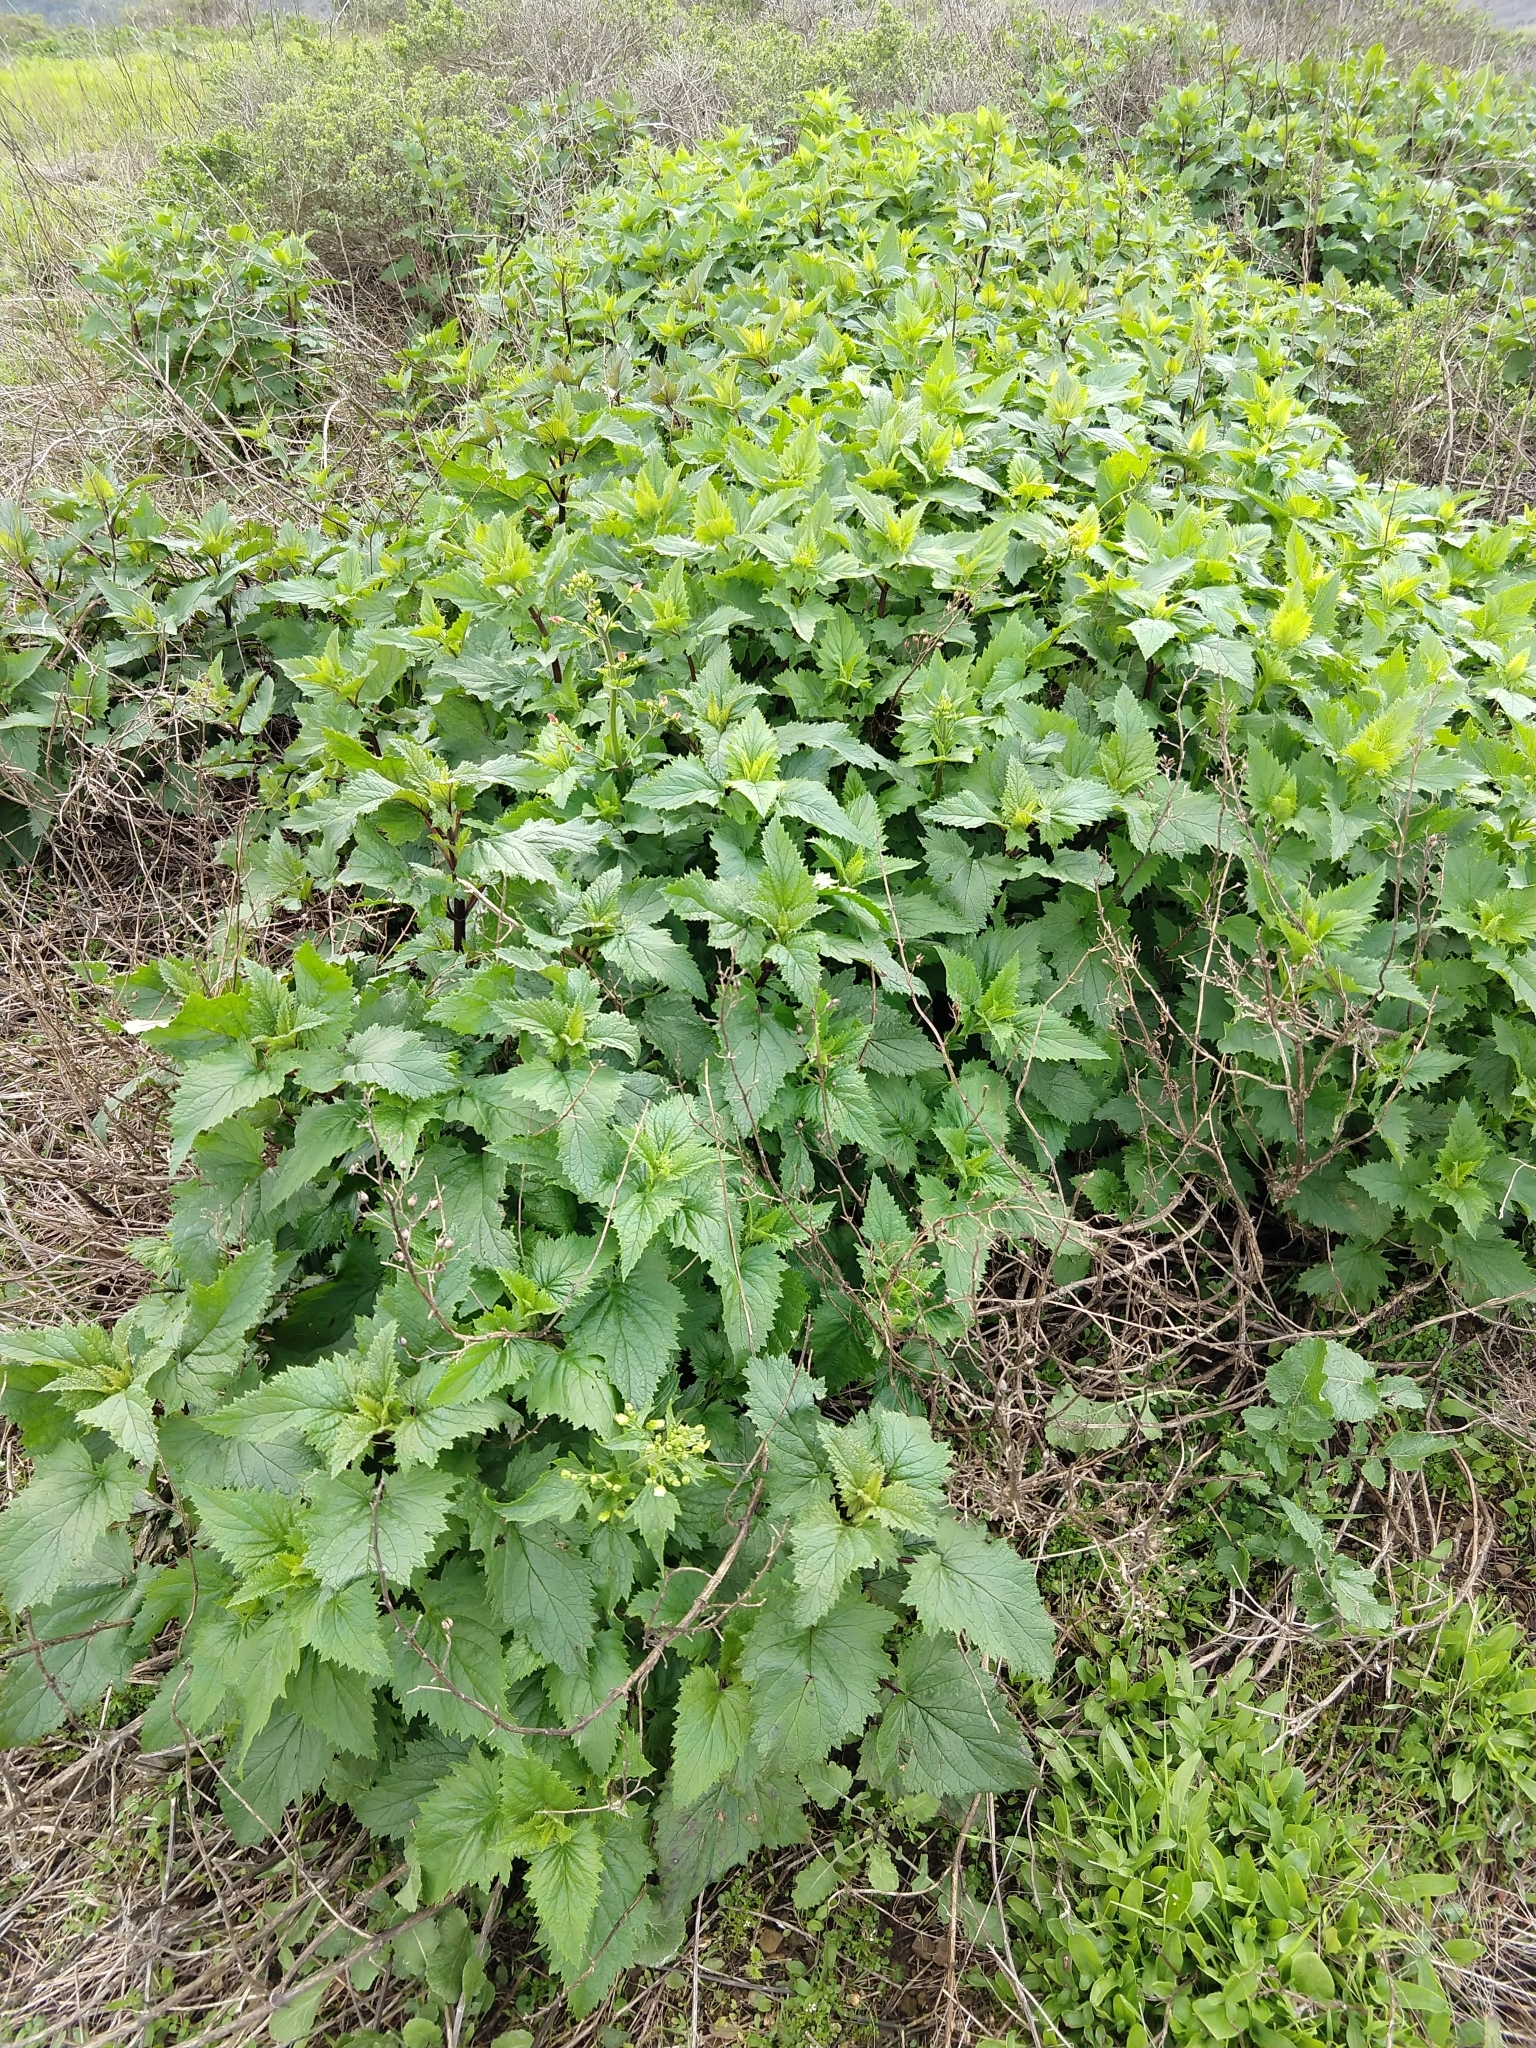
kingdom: Plantae
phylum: Tracheophyta
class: Magnoliopsida
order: Lamiales
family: Scrophulariaceae
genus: Scrophularia
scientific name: Scrophularia californica
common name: California figwort
